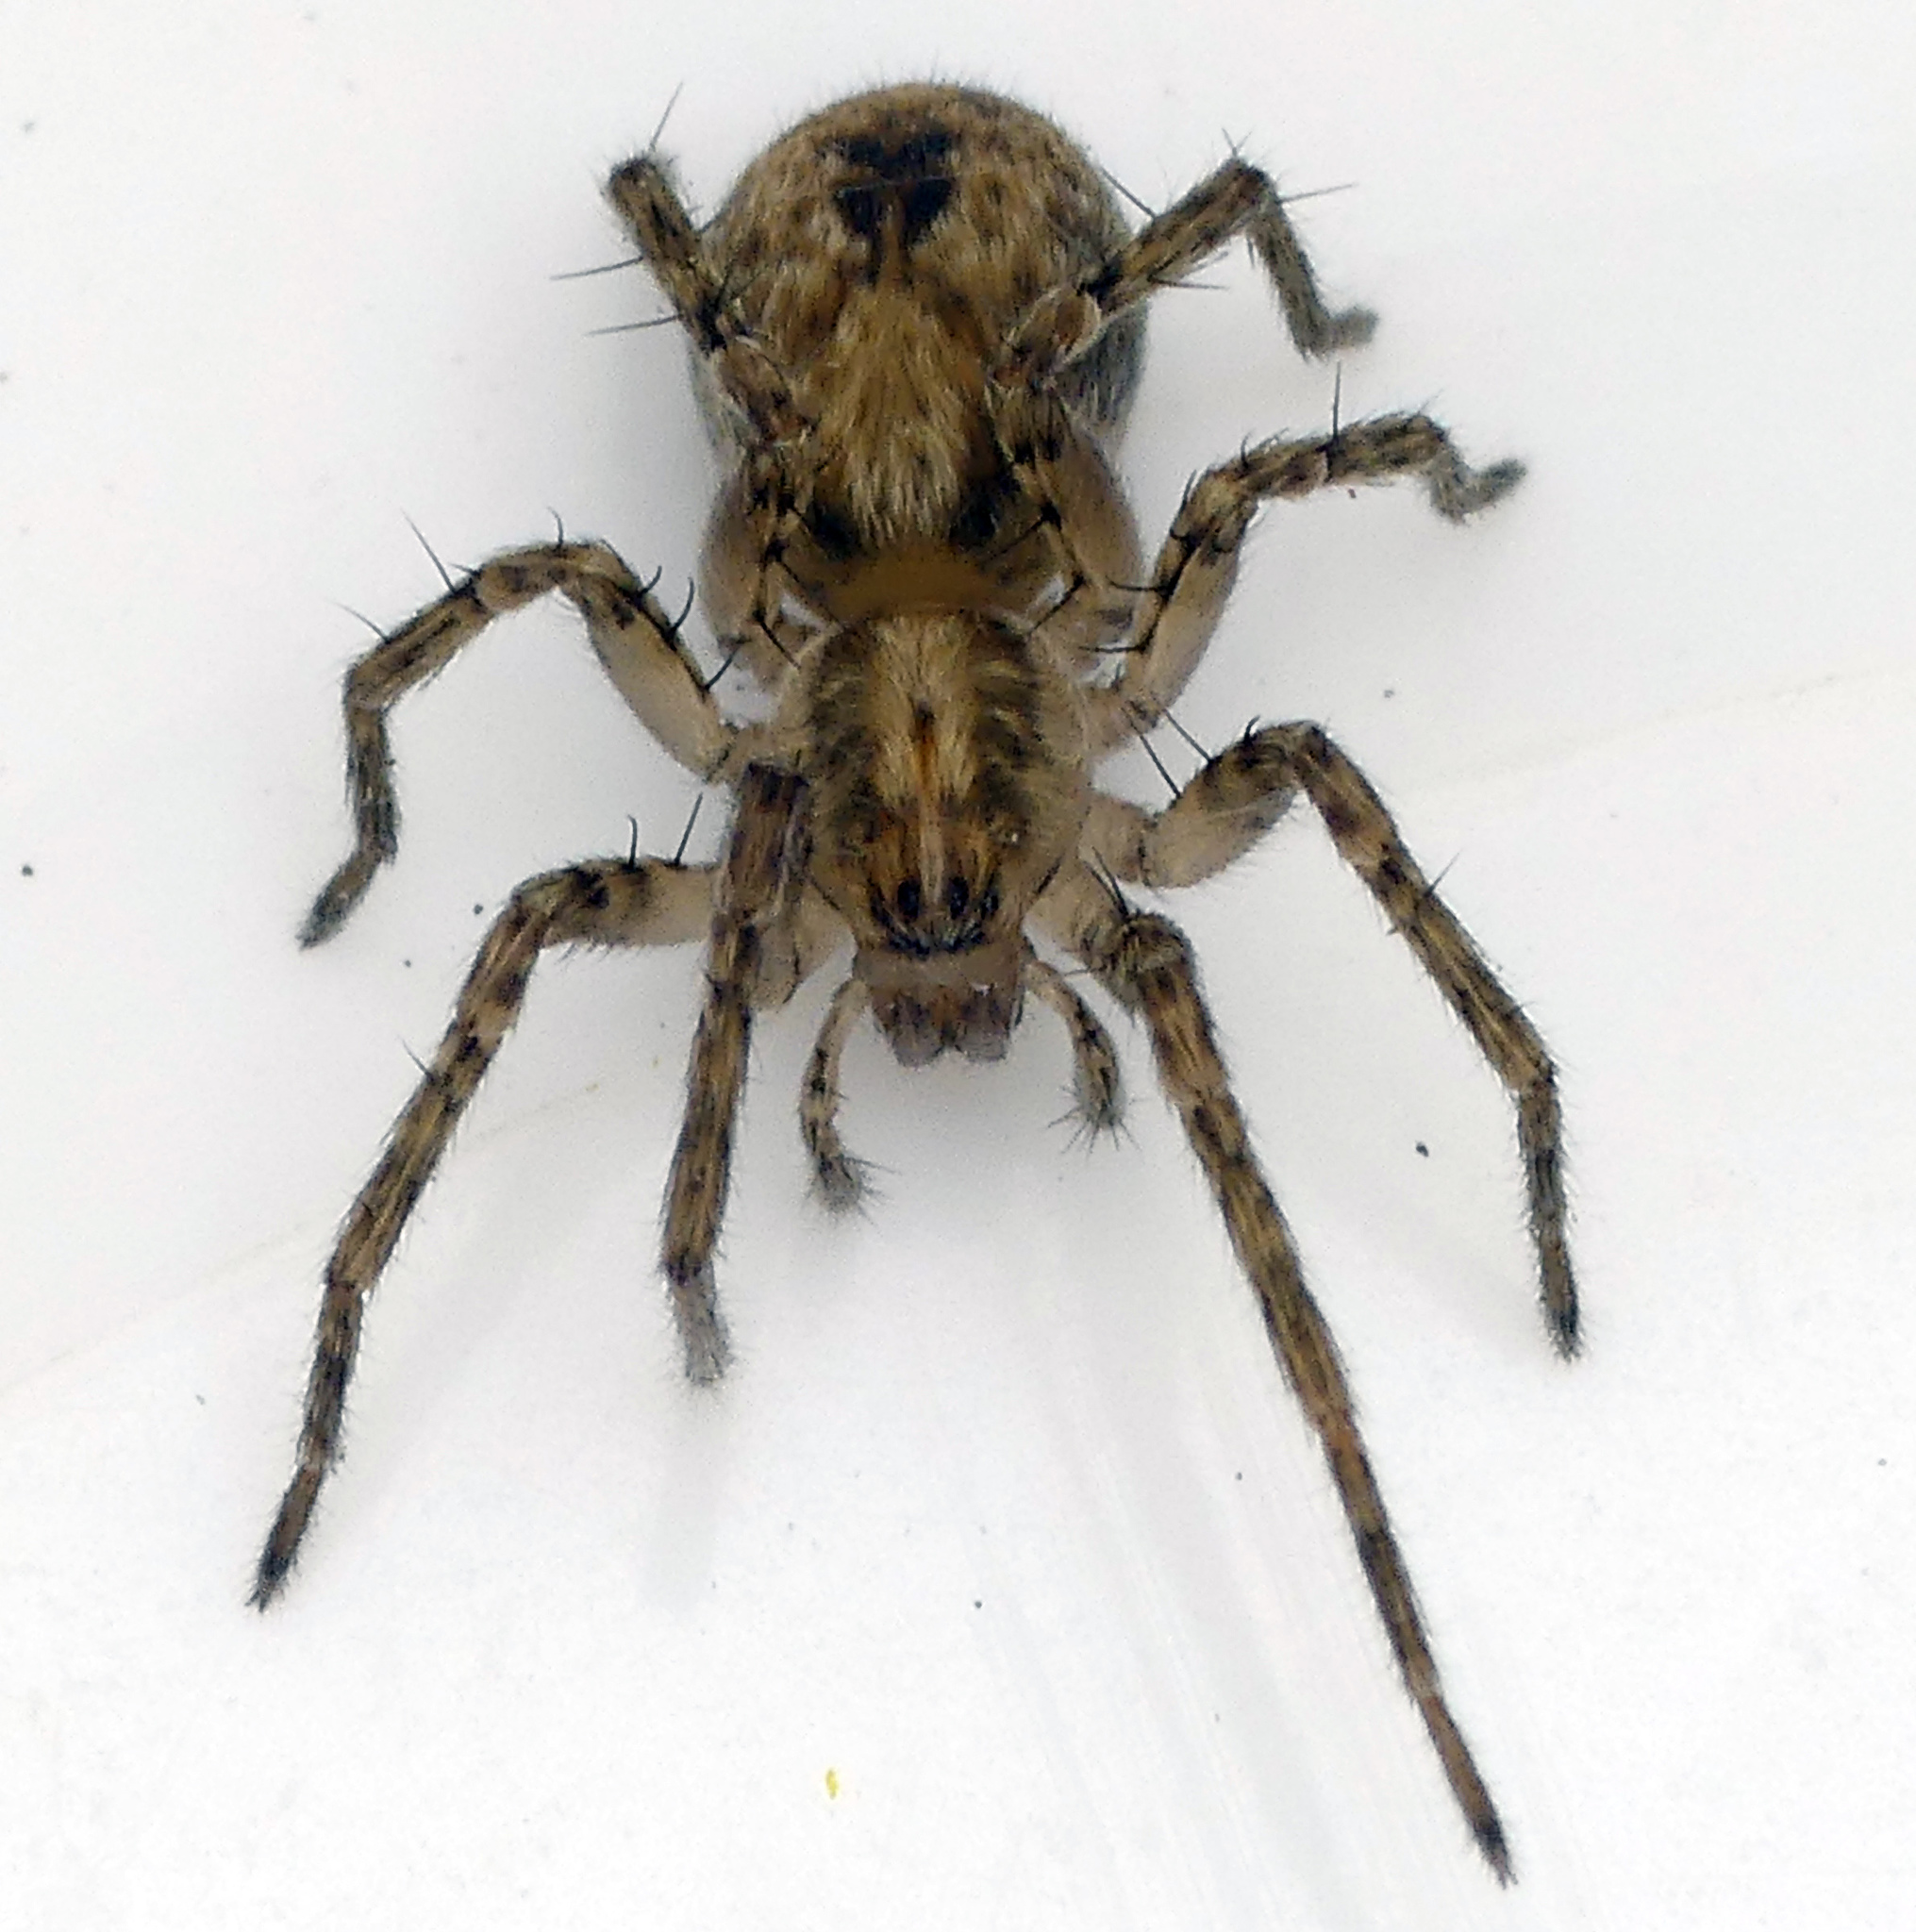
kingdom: Animalia
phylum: Arthropoda
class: Arachnida
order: Araneae
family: Anyphaenidae
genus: Anyphaena
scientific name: Anyphaena accentuata
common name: Buzzing spider
